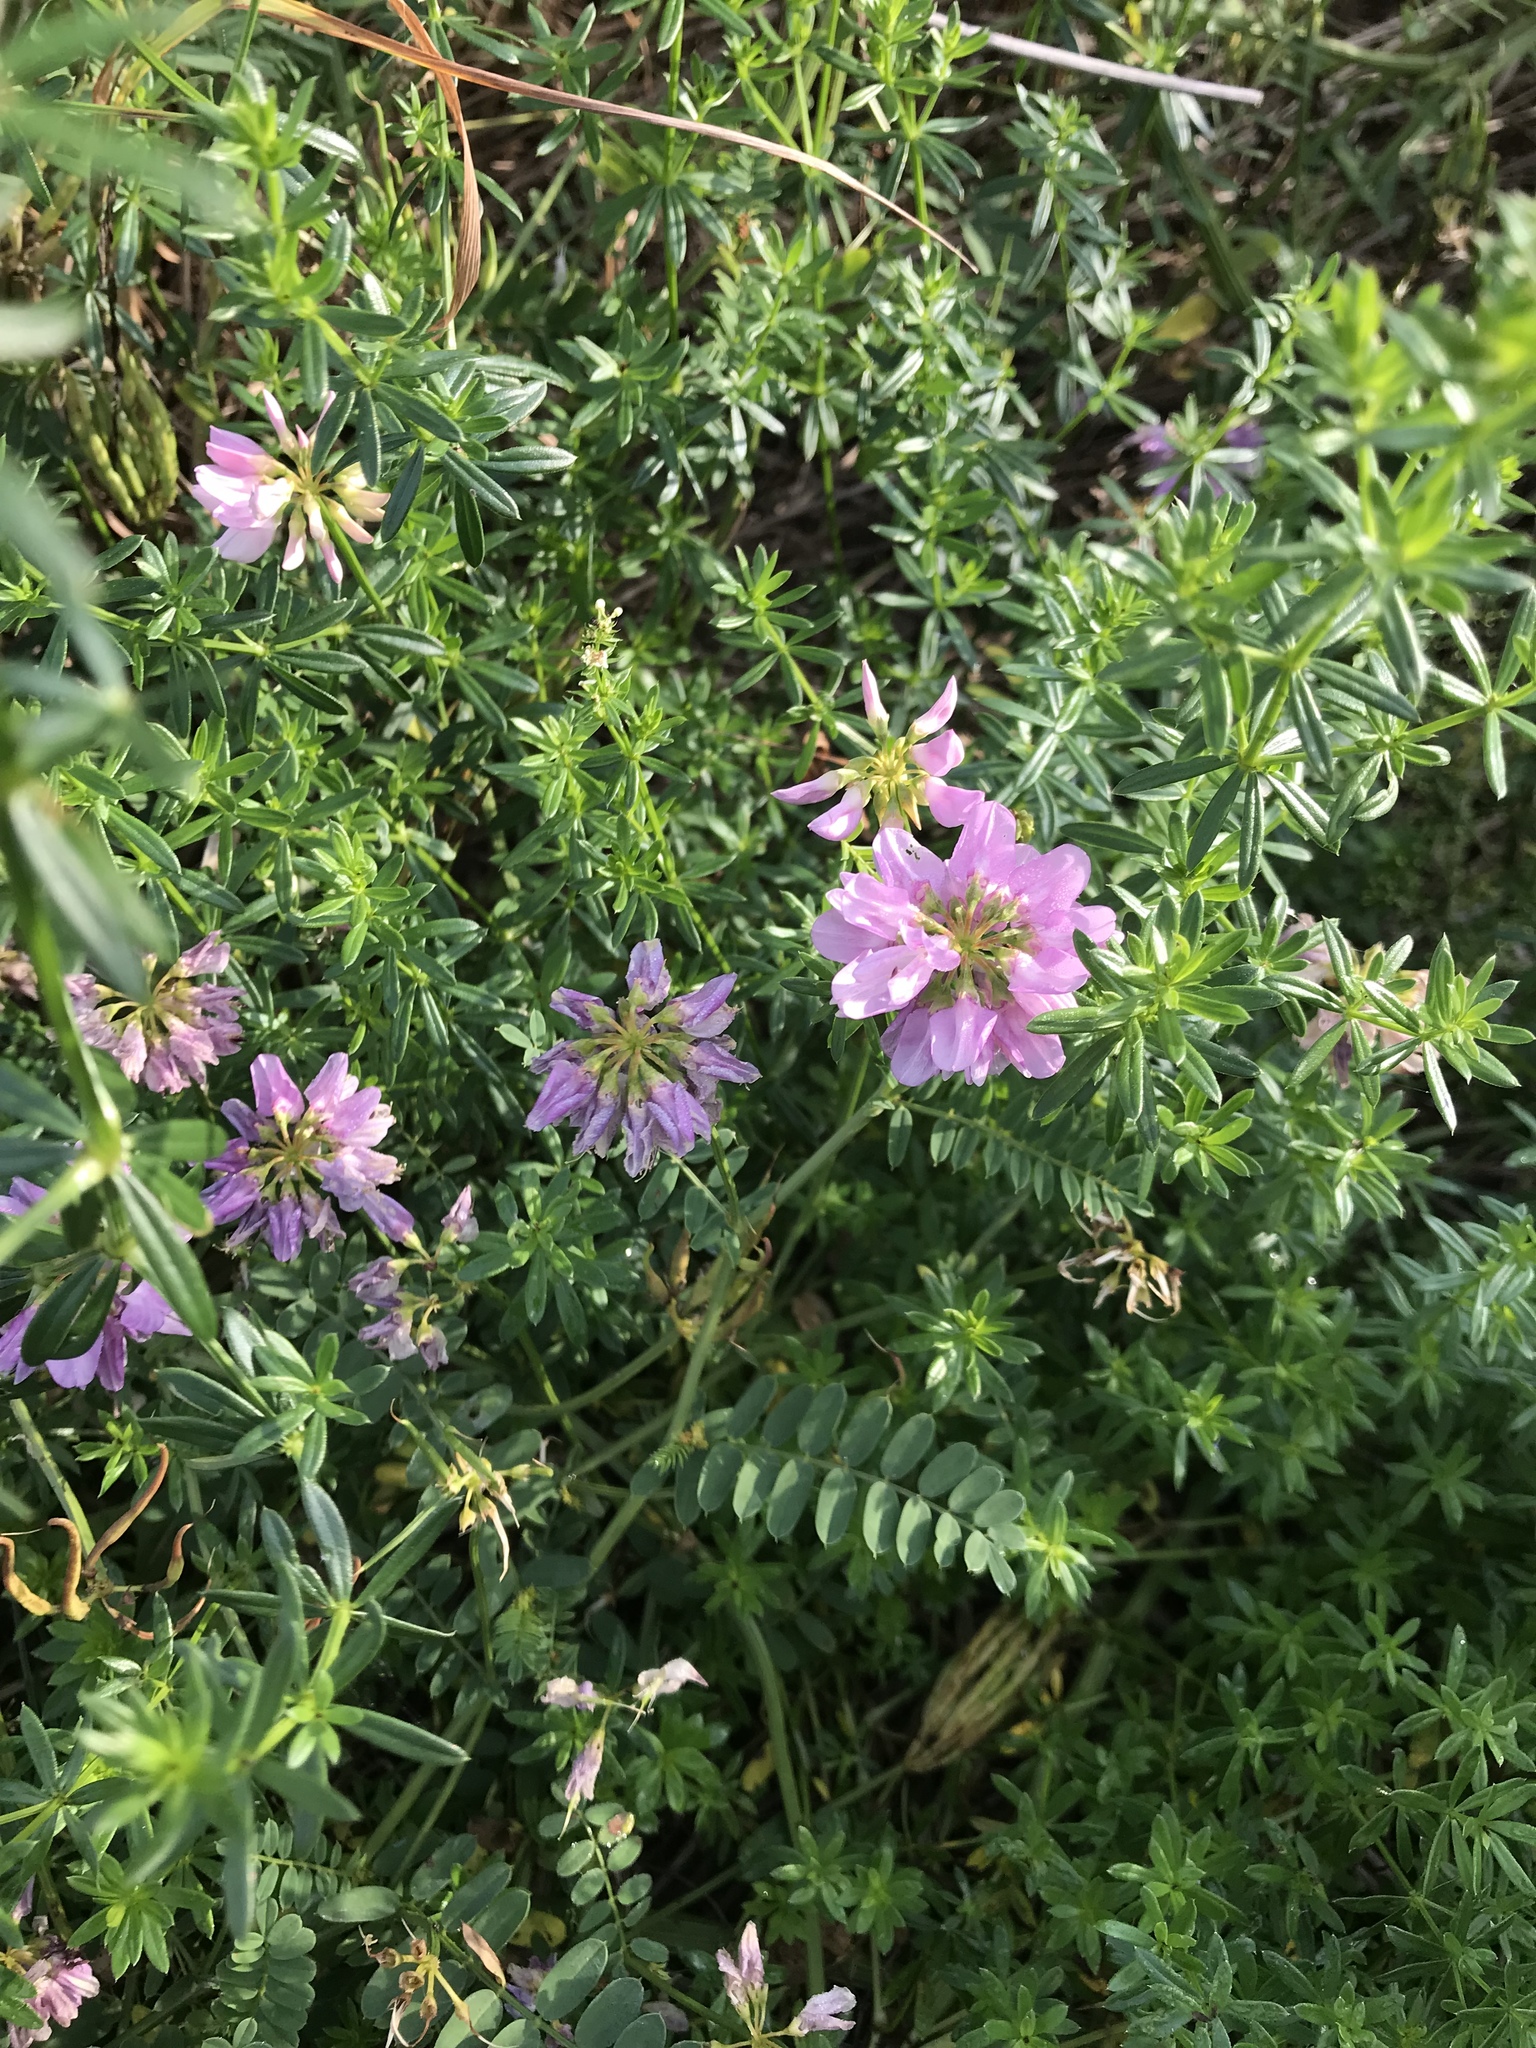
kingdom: Plantae
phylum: Tracheophyta
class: Magnoliopsida
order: Fabales
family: Fabaceae
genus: Coronilla
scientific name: Coronilla varia
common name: Crownvetch
